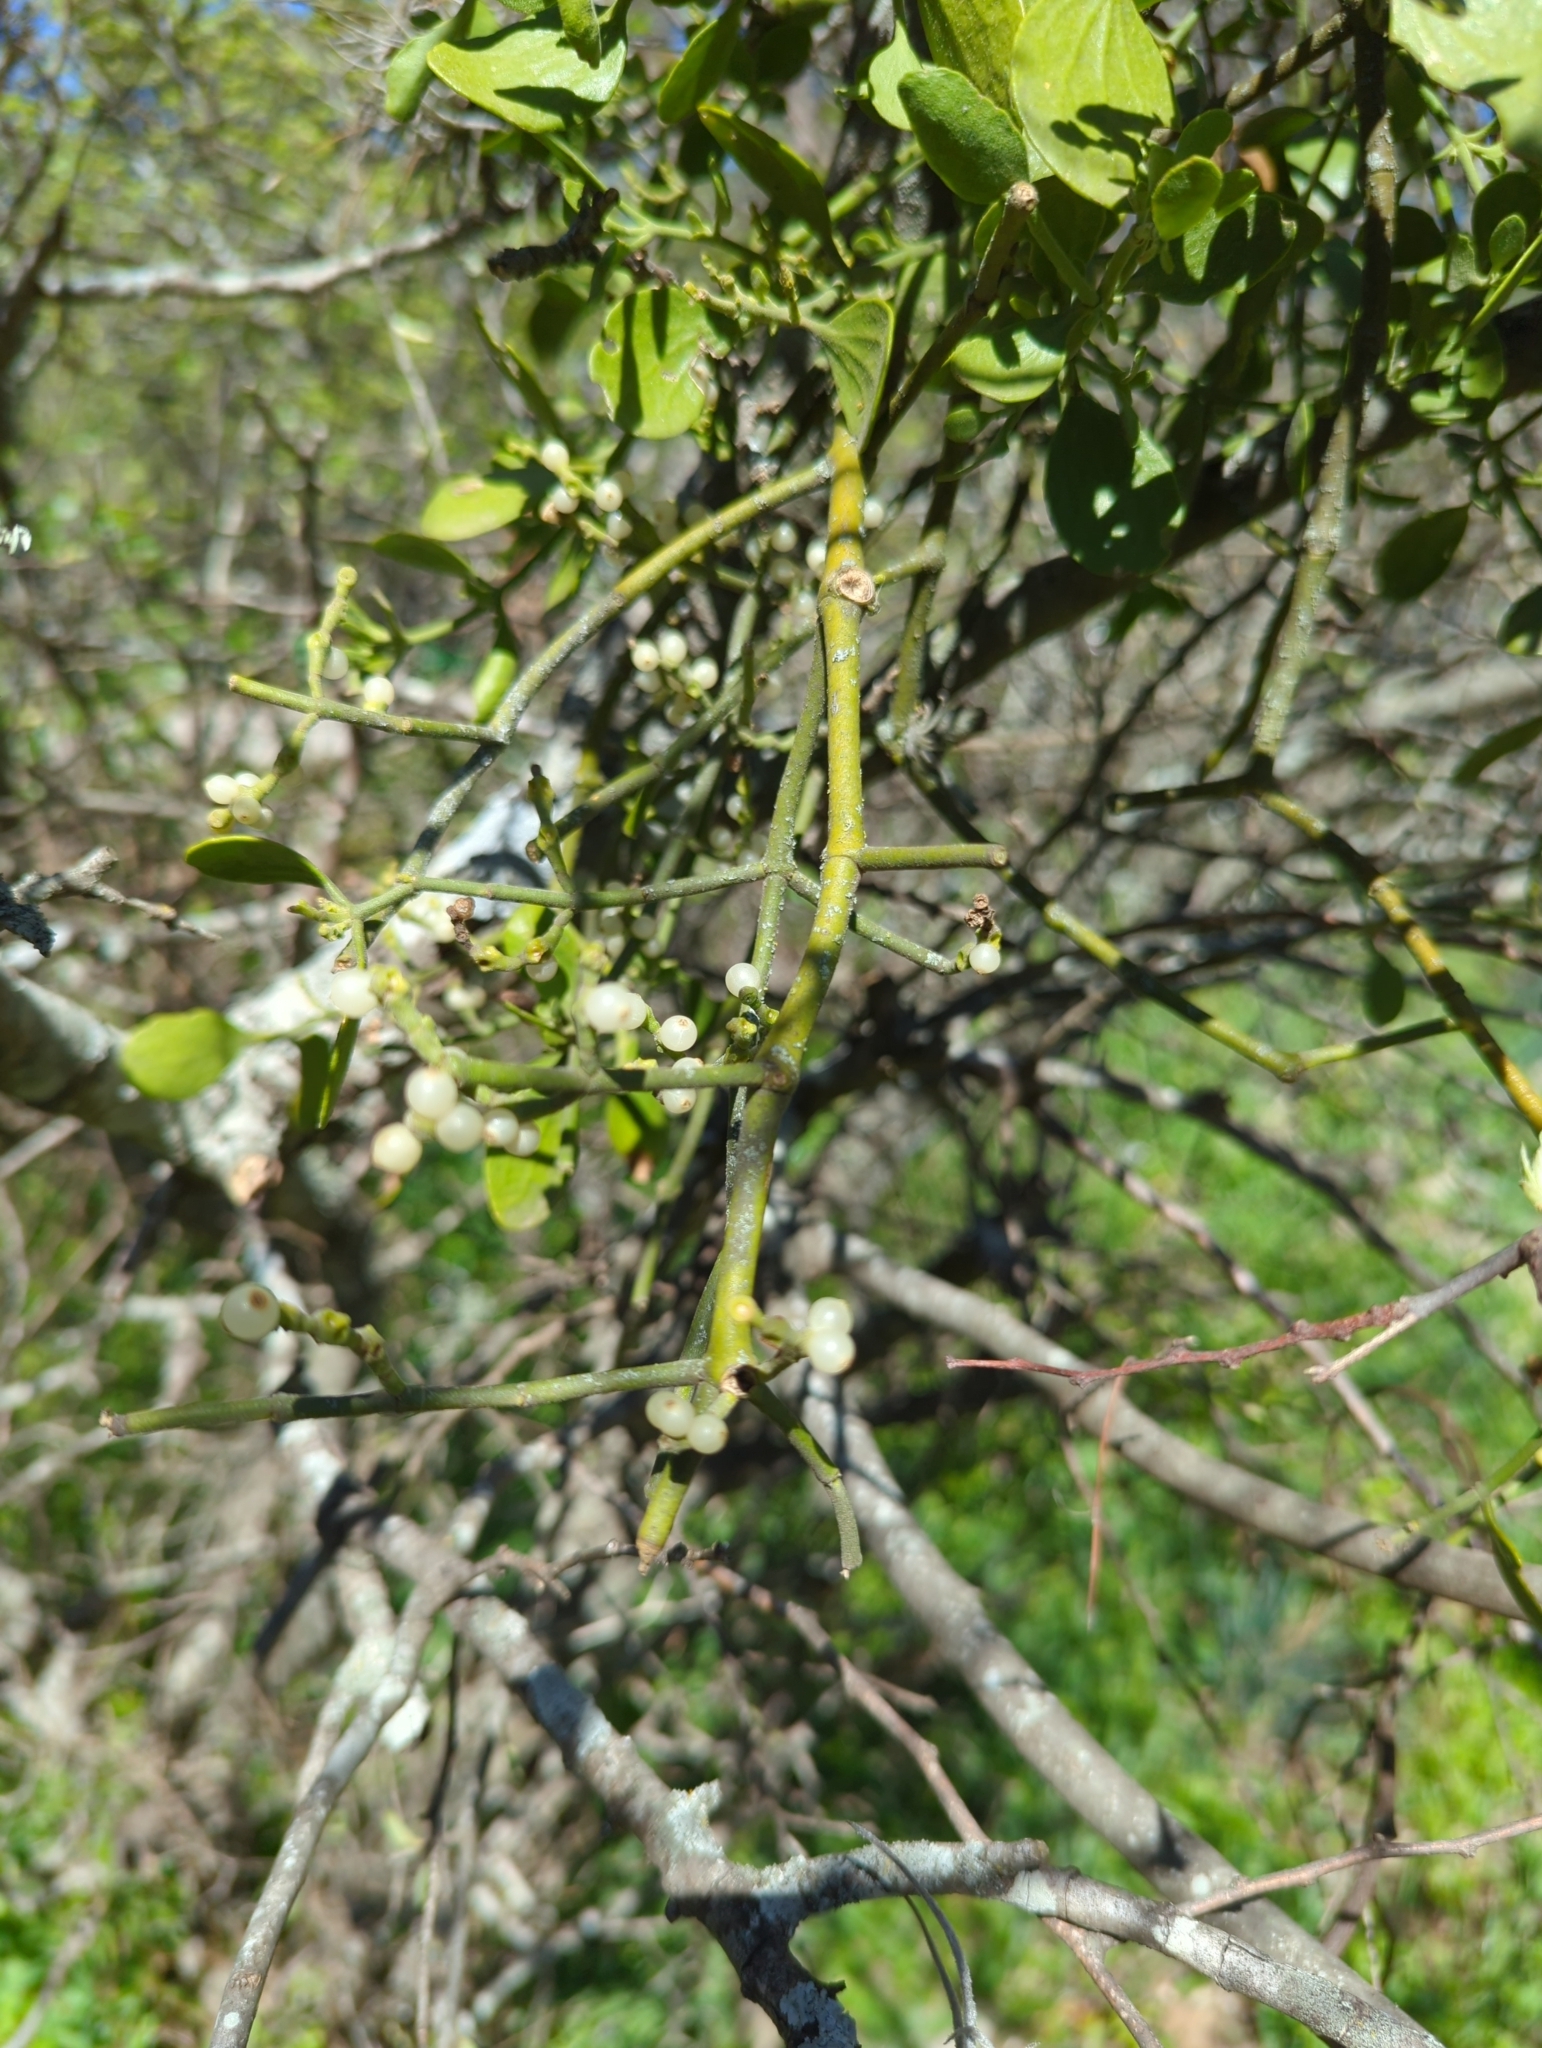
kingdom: Plantae
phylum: Tracheophyta
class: Magnoliopsida
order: Santalales
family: Viscaceae
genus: Phoradendron
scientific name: Phoradendron leucarpum
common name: Pacific mistletoe
